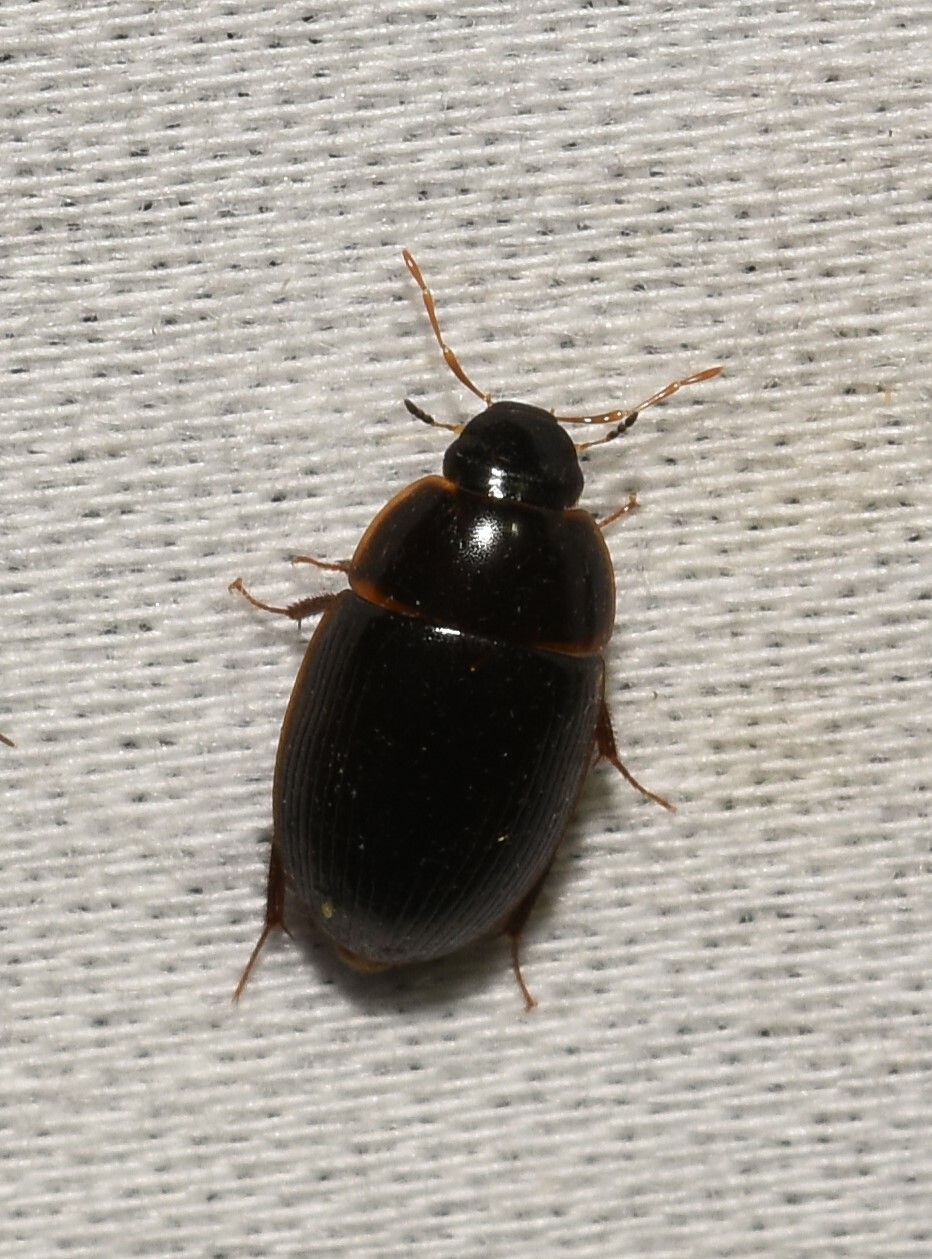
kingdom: Animalia
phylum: Arthropoda
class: Insecta
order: Coleoptera
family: Hydrophilidae
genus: Cymbiodyta
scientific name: Cymbiodyta bifida
